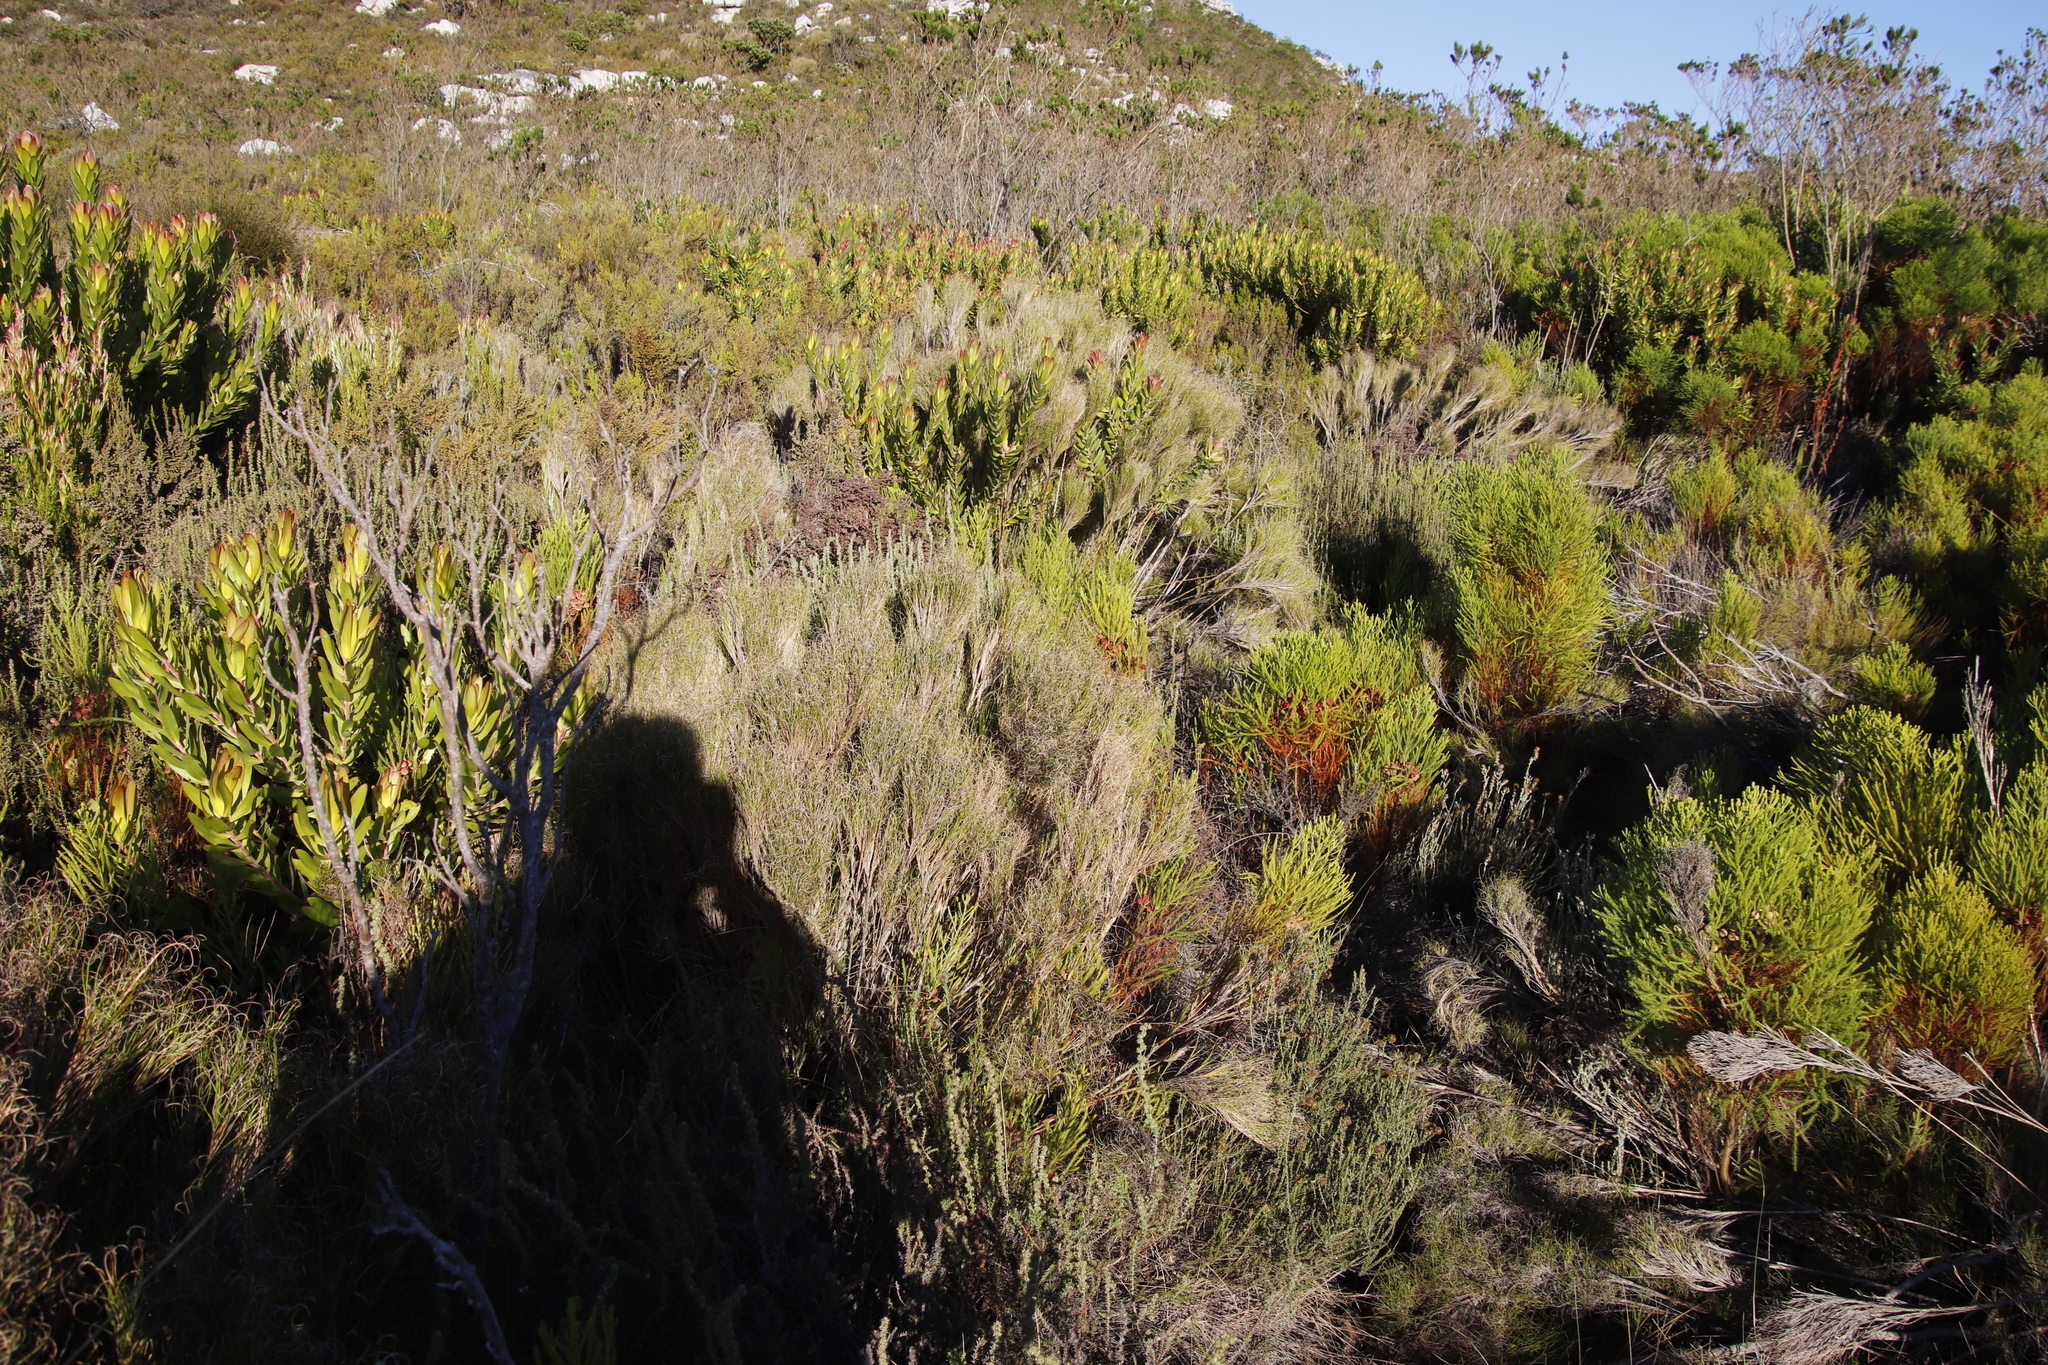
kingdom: Plantae
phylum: Tracheophyta
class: Liliopsida
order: Poales
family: Poaceae
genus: Pseudopentameris
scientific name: Pseudopentameris macrantha
